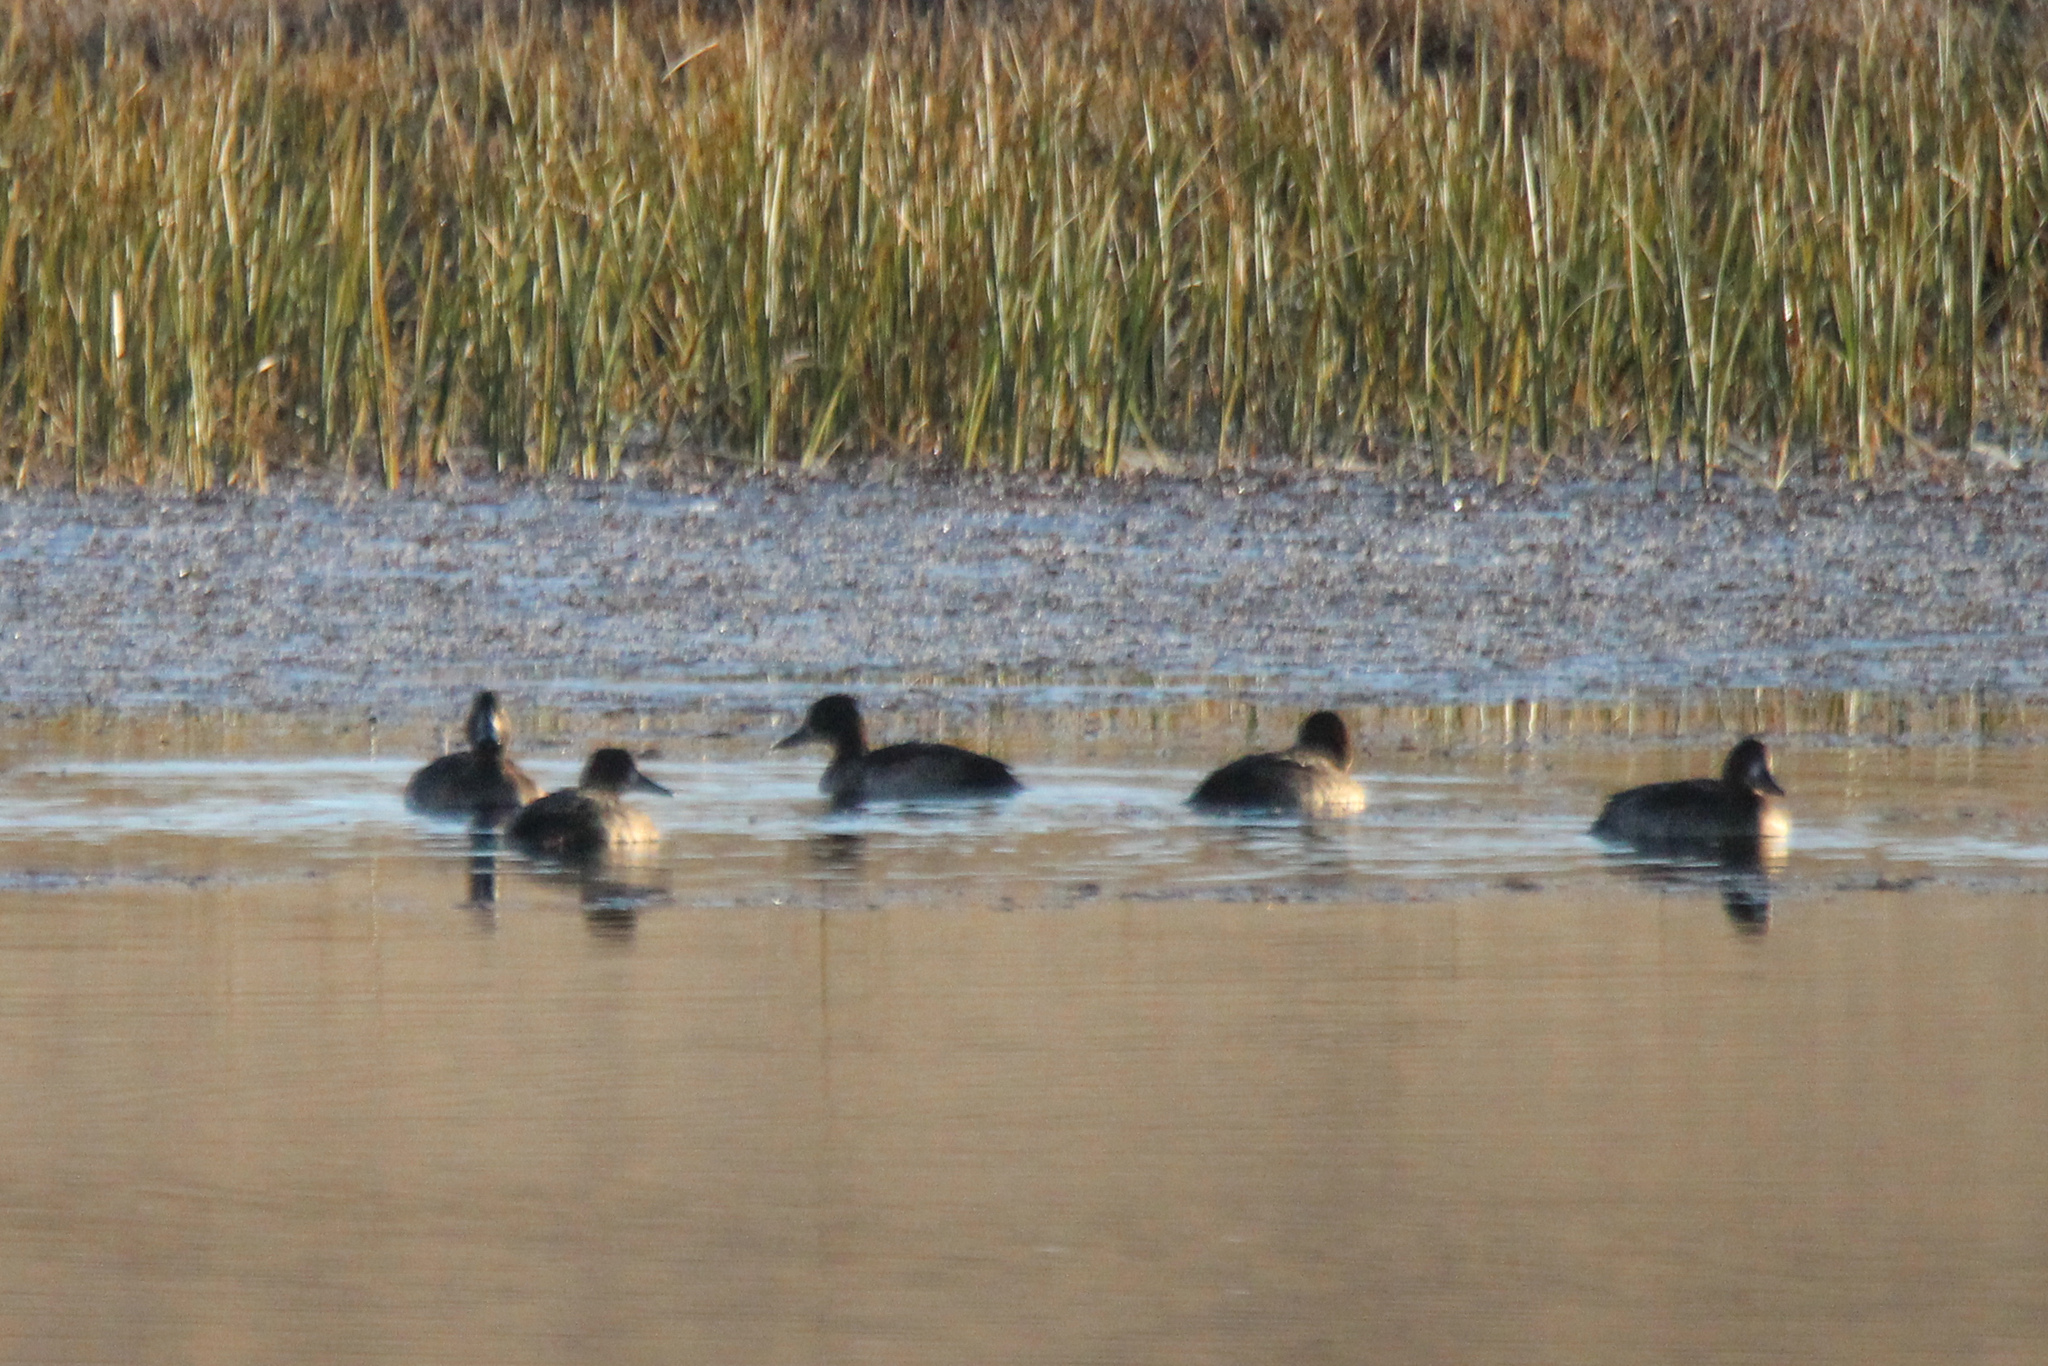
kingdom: Animalia
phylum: Chordata
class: Aves
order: Anseriformes
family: Anatidae
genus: Aythya
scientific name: Aythya fuligula
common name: Tufted duck
